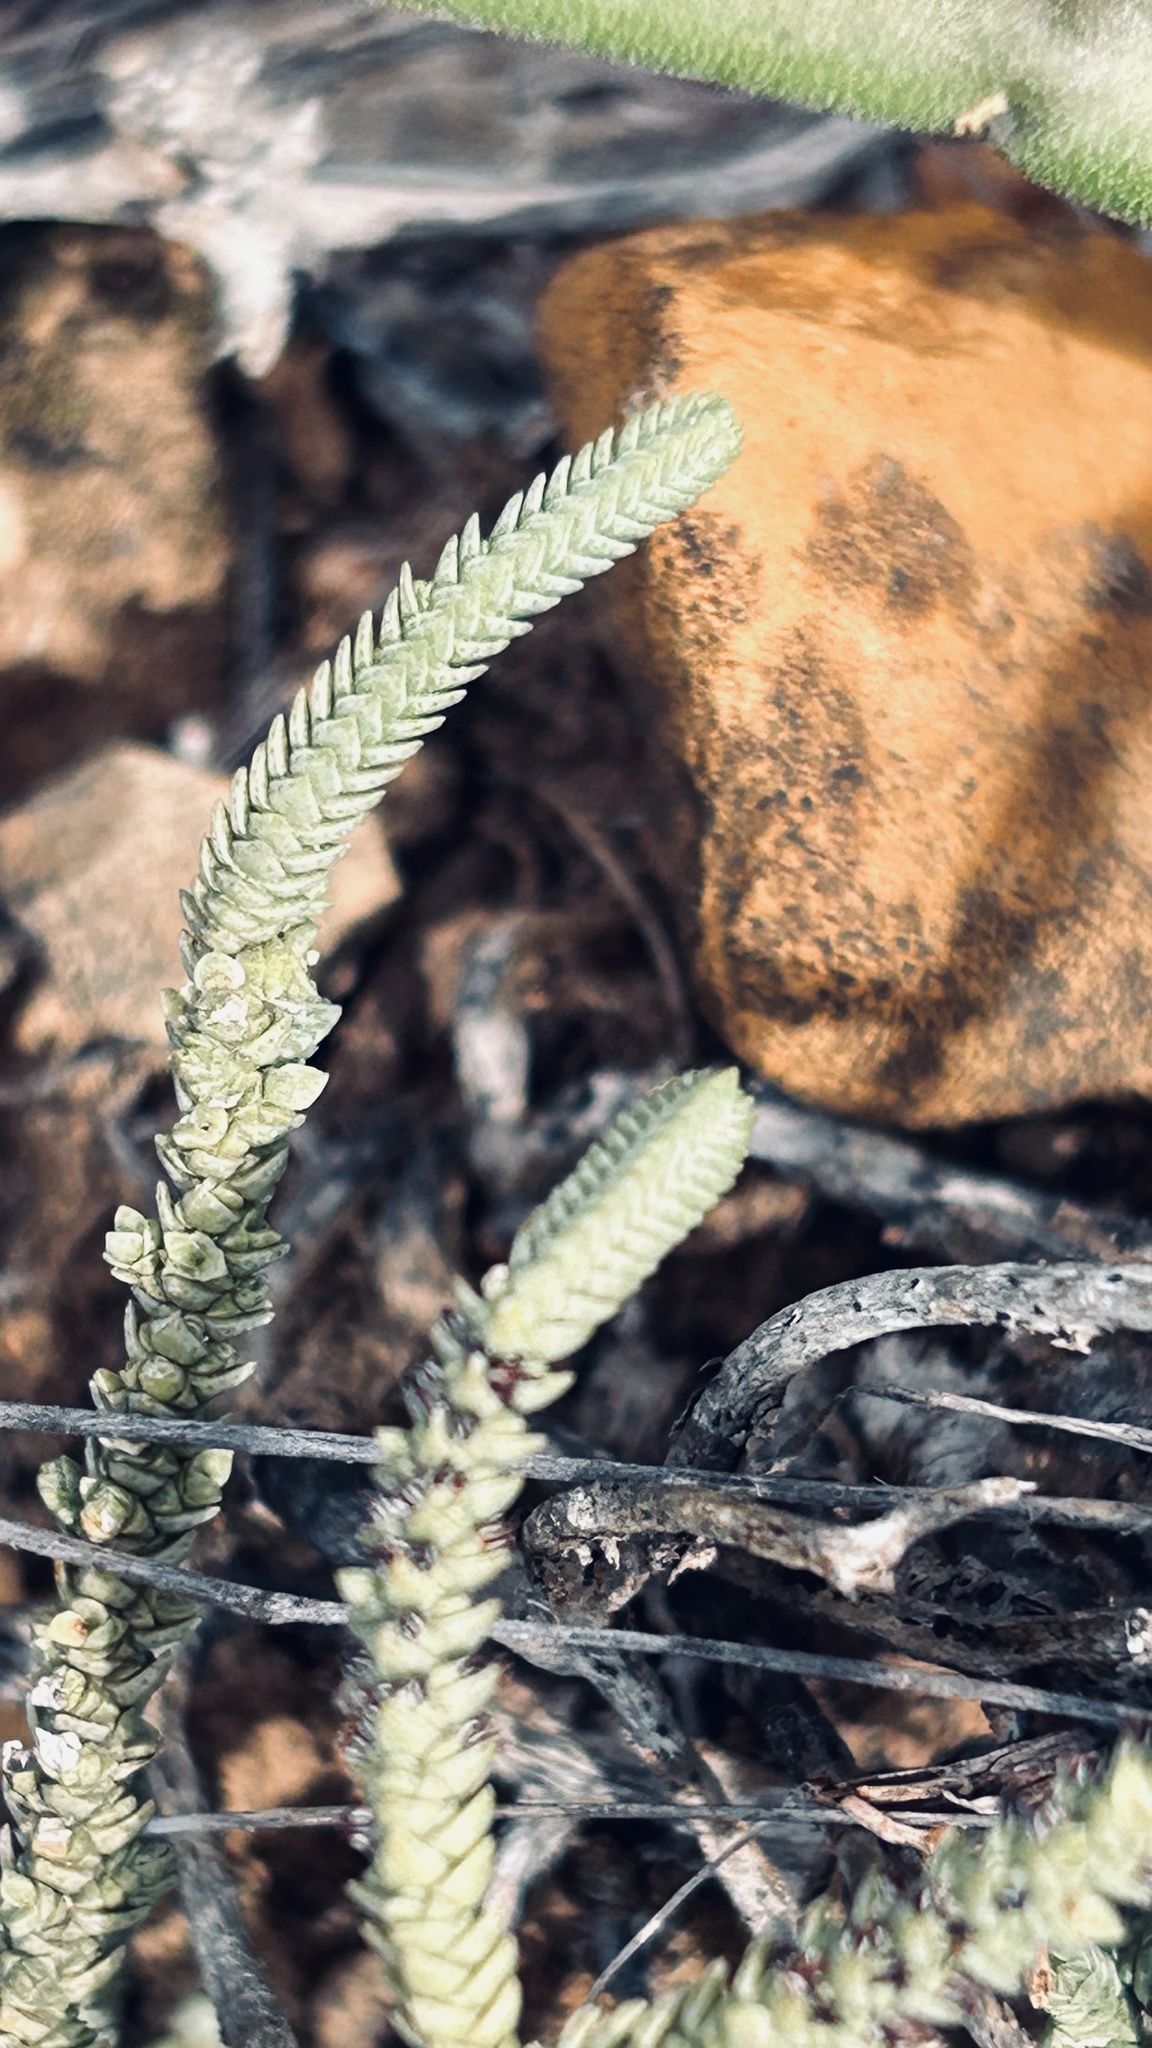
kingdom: Plantae
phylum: Tracheophyta
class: Magnoliopsida
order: Saxifragales
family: Crassulaceae
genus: Crassula
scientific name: Crassula muscosa
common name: Toy-cypress
